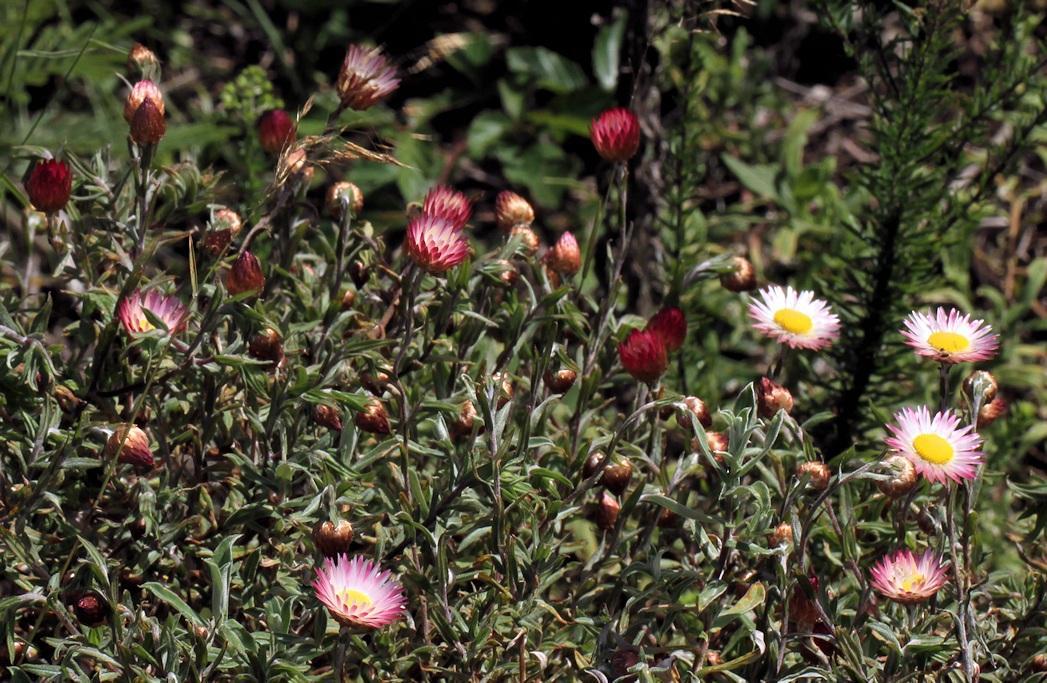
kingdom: Plantae
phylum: Tracheophyta
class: Magnoliopsida
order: Asterales
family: Asteraceae
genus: Helichrysum
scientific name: Helichrysum wilmsii
